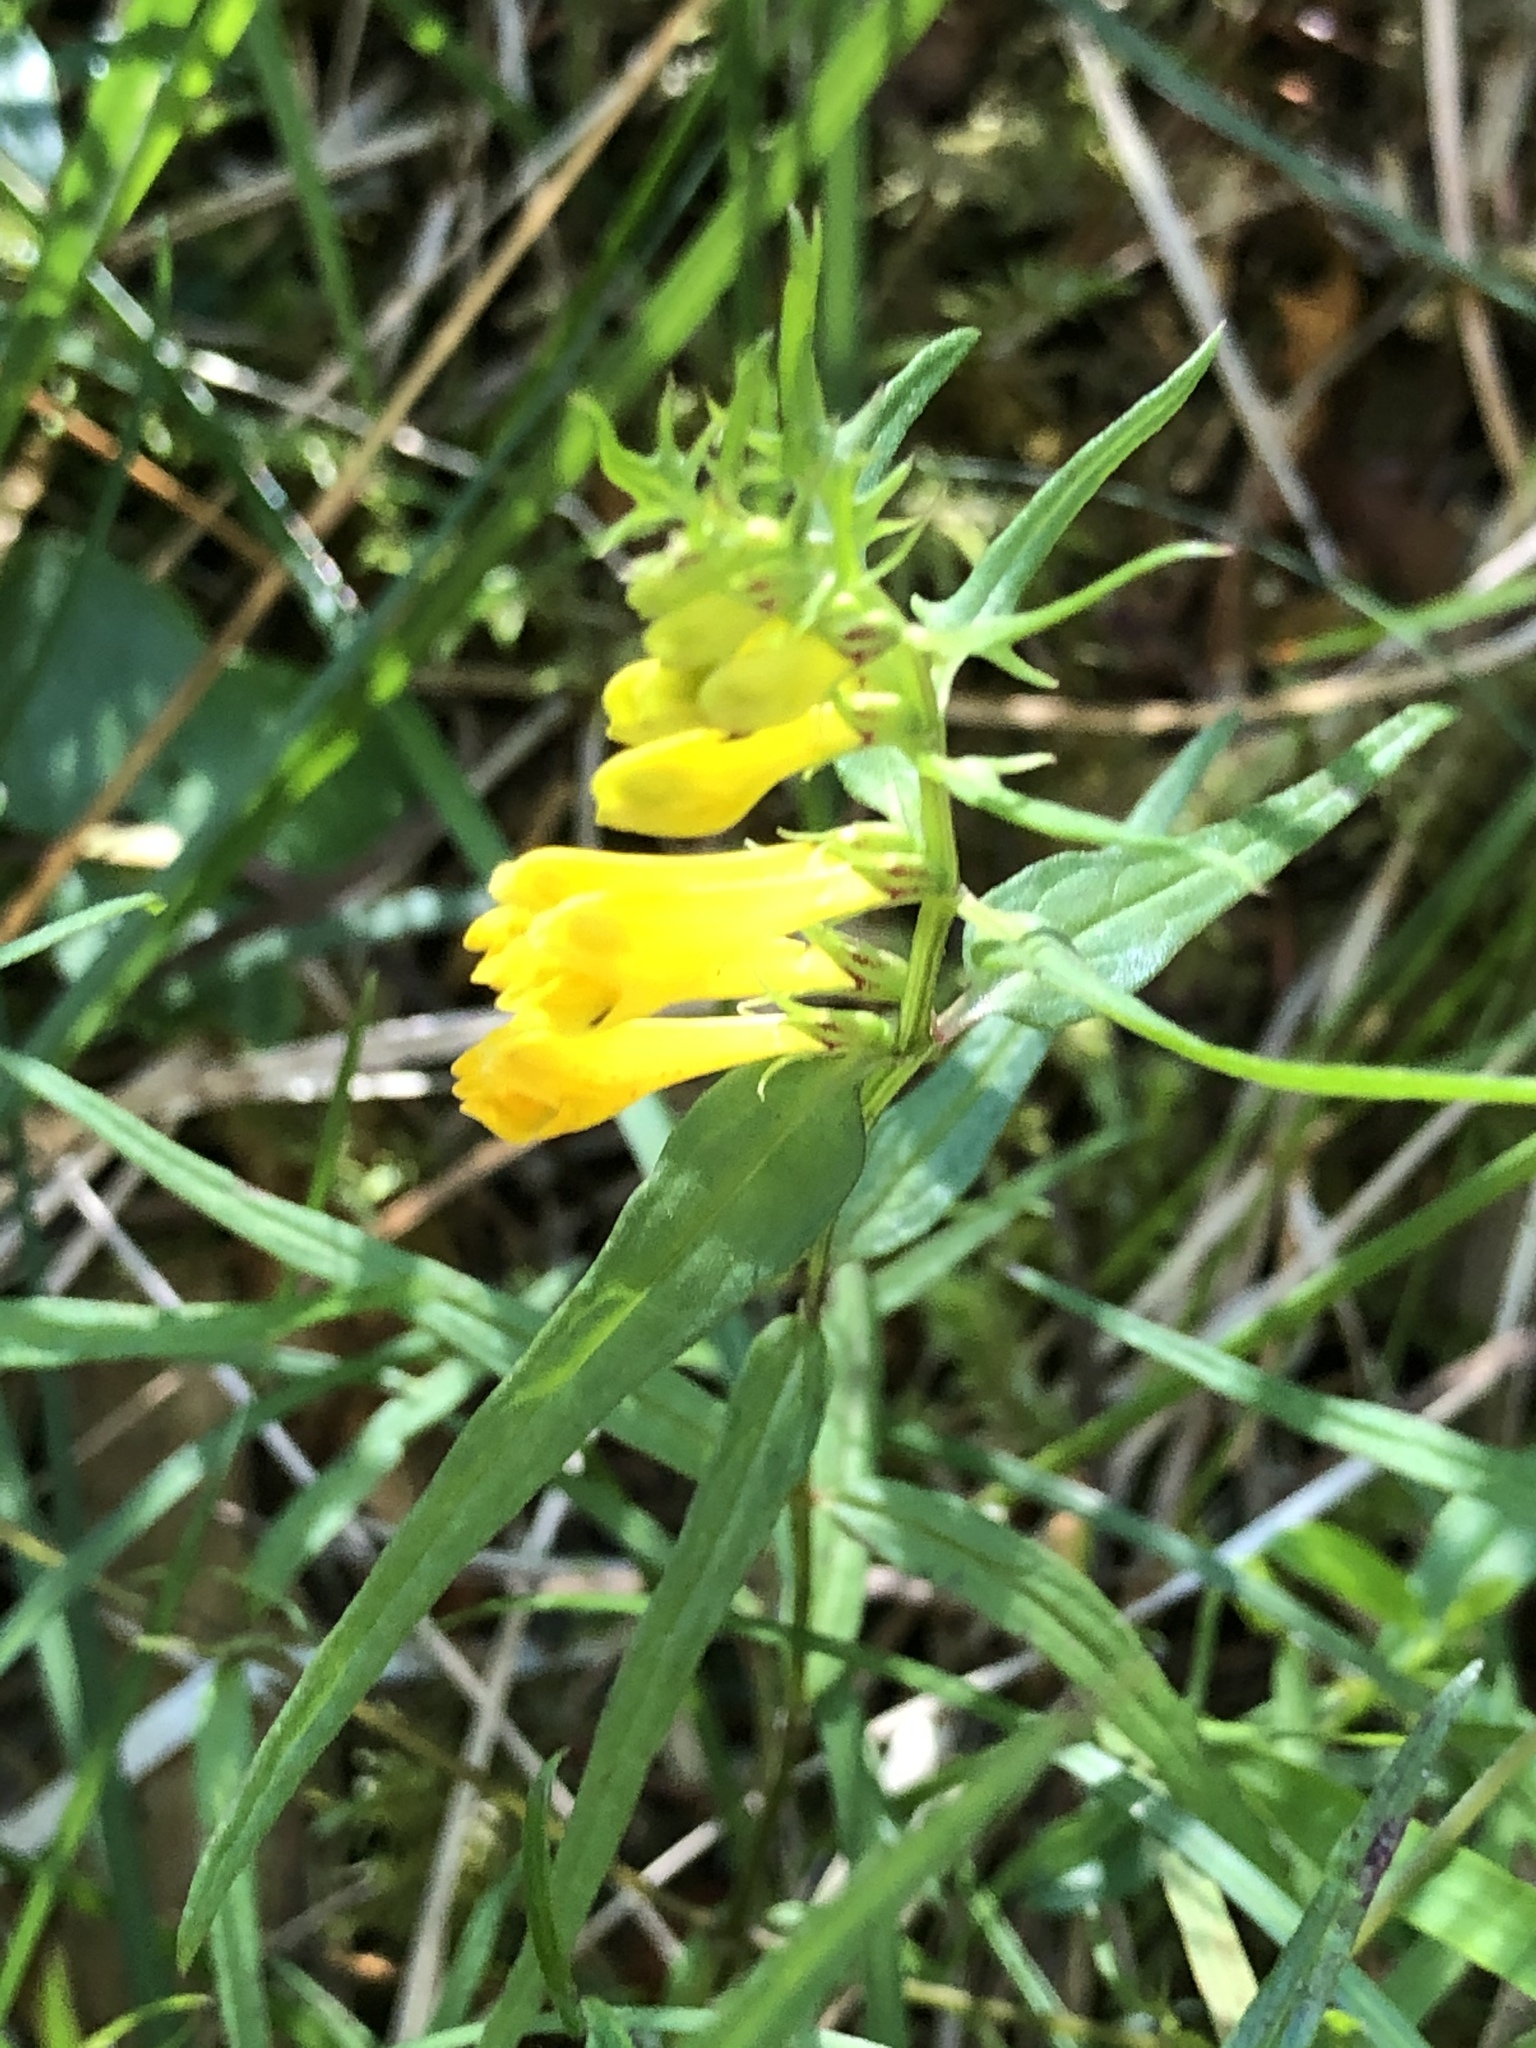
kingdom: Plantae
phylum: Tracheophyta
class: Magnoliopsida
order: Lamiales
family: Orobanchaceae
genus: Melampyrum
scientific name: Melampyrum pratense
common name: Common cow-wheat
